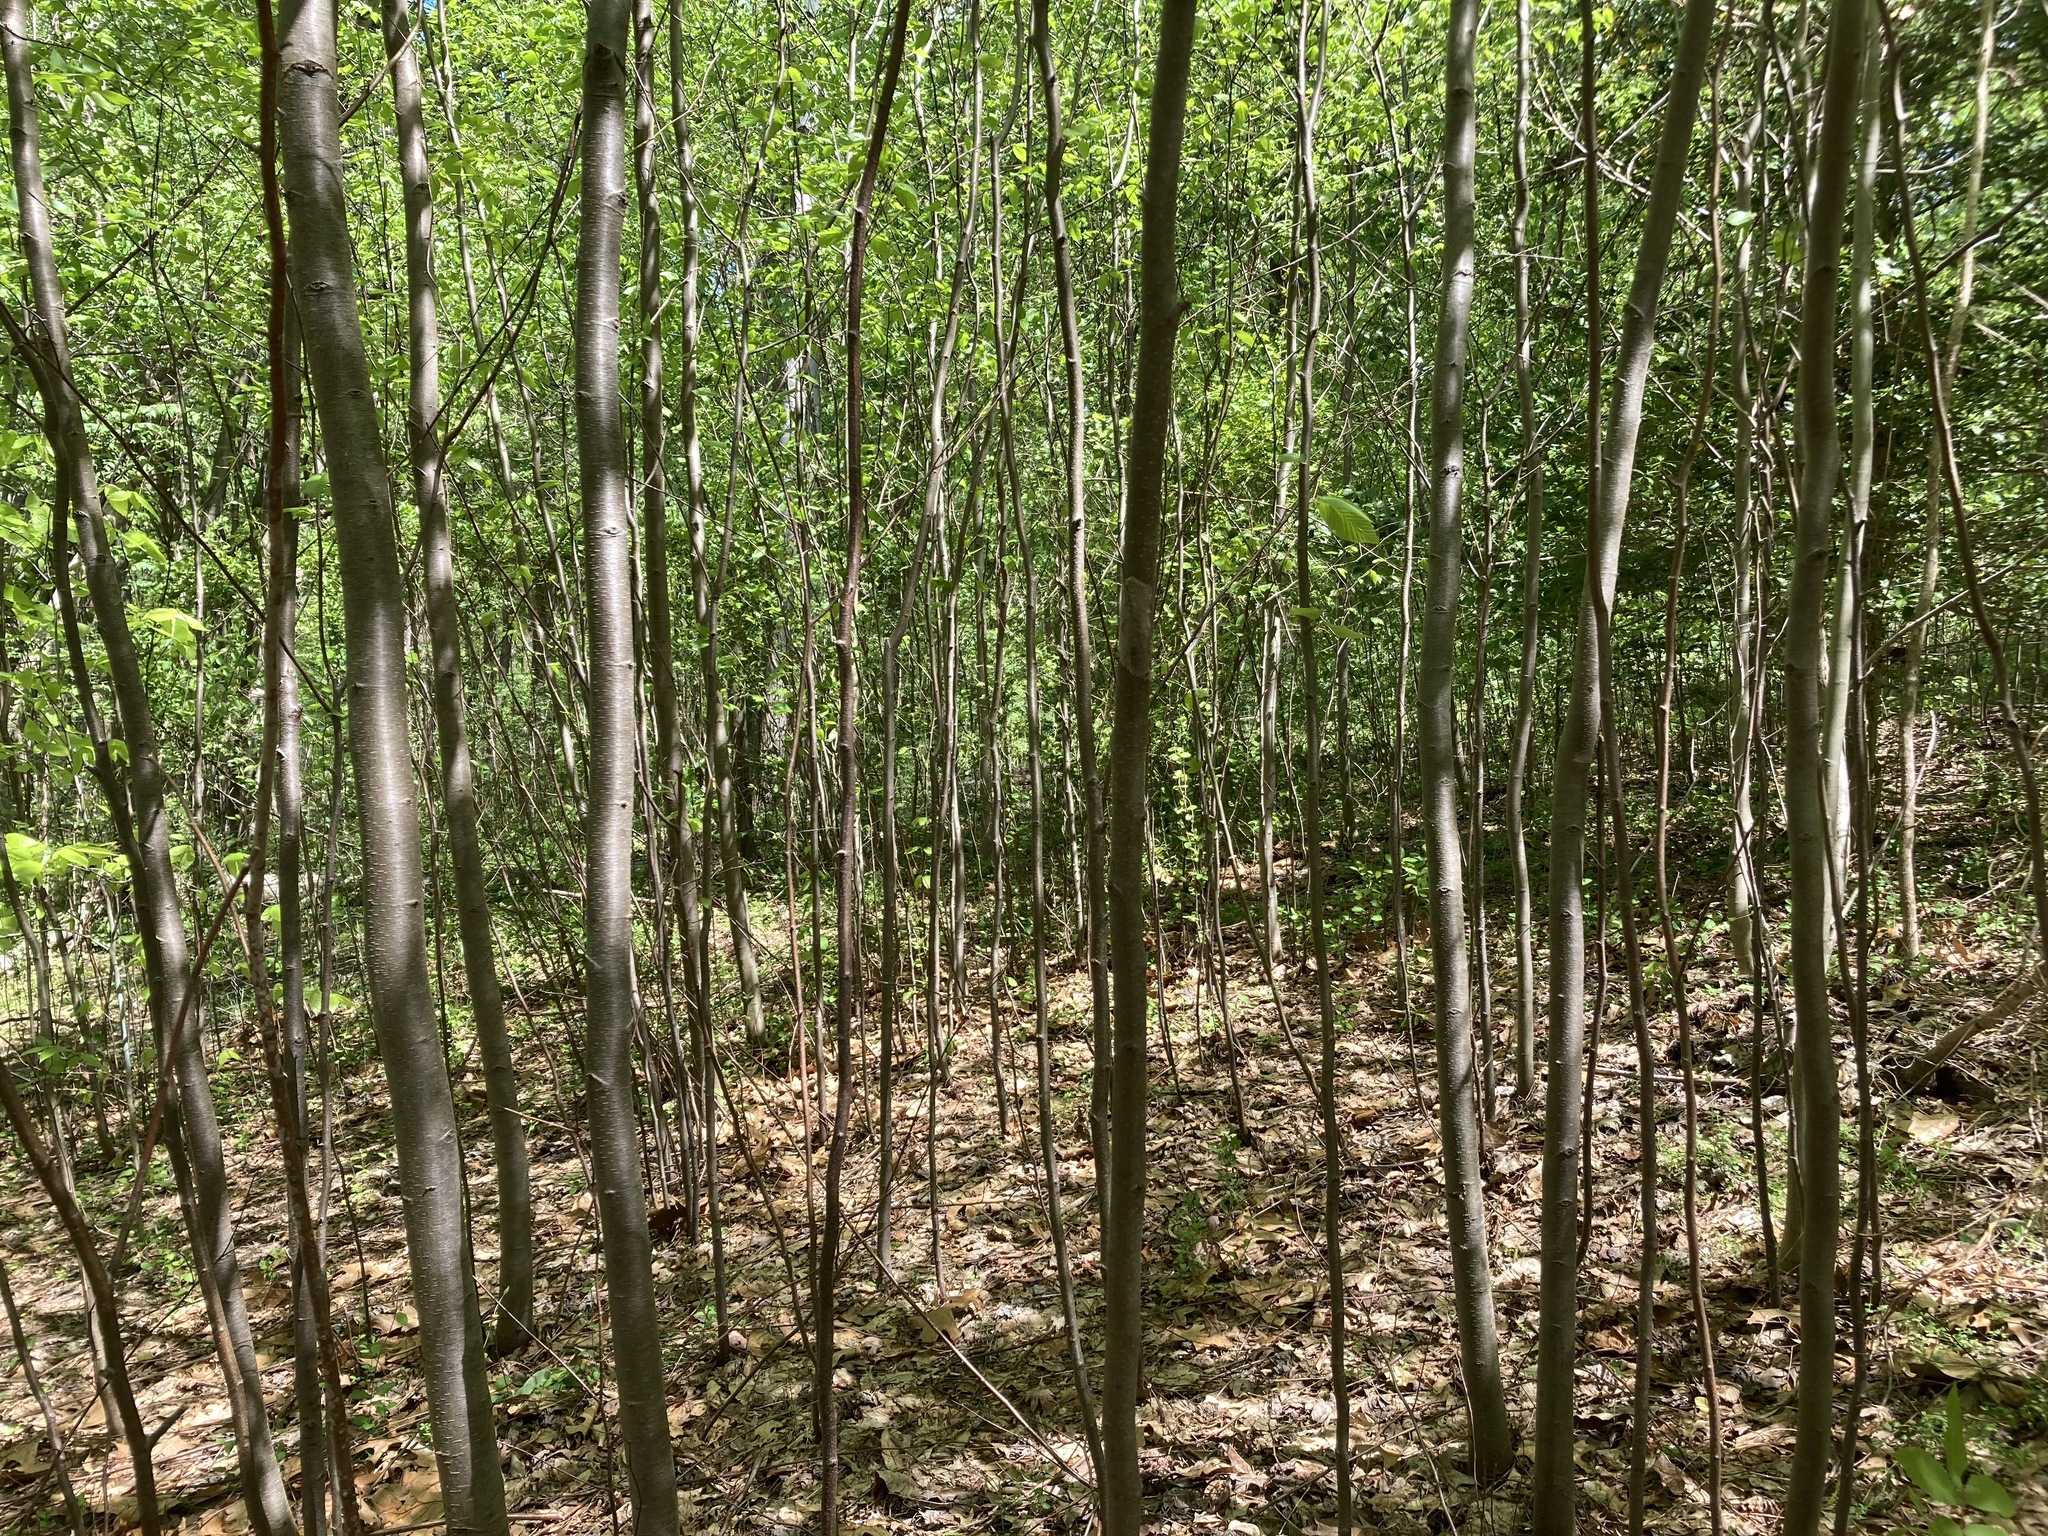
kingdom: Plantae
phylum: Tracheophyta
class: Magnoliopsida
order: Fagales
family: Betulaceae
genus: Betula
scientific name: Betula populifolia
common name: Fire birch
